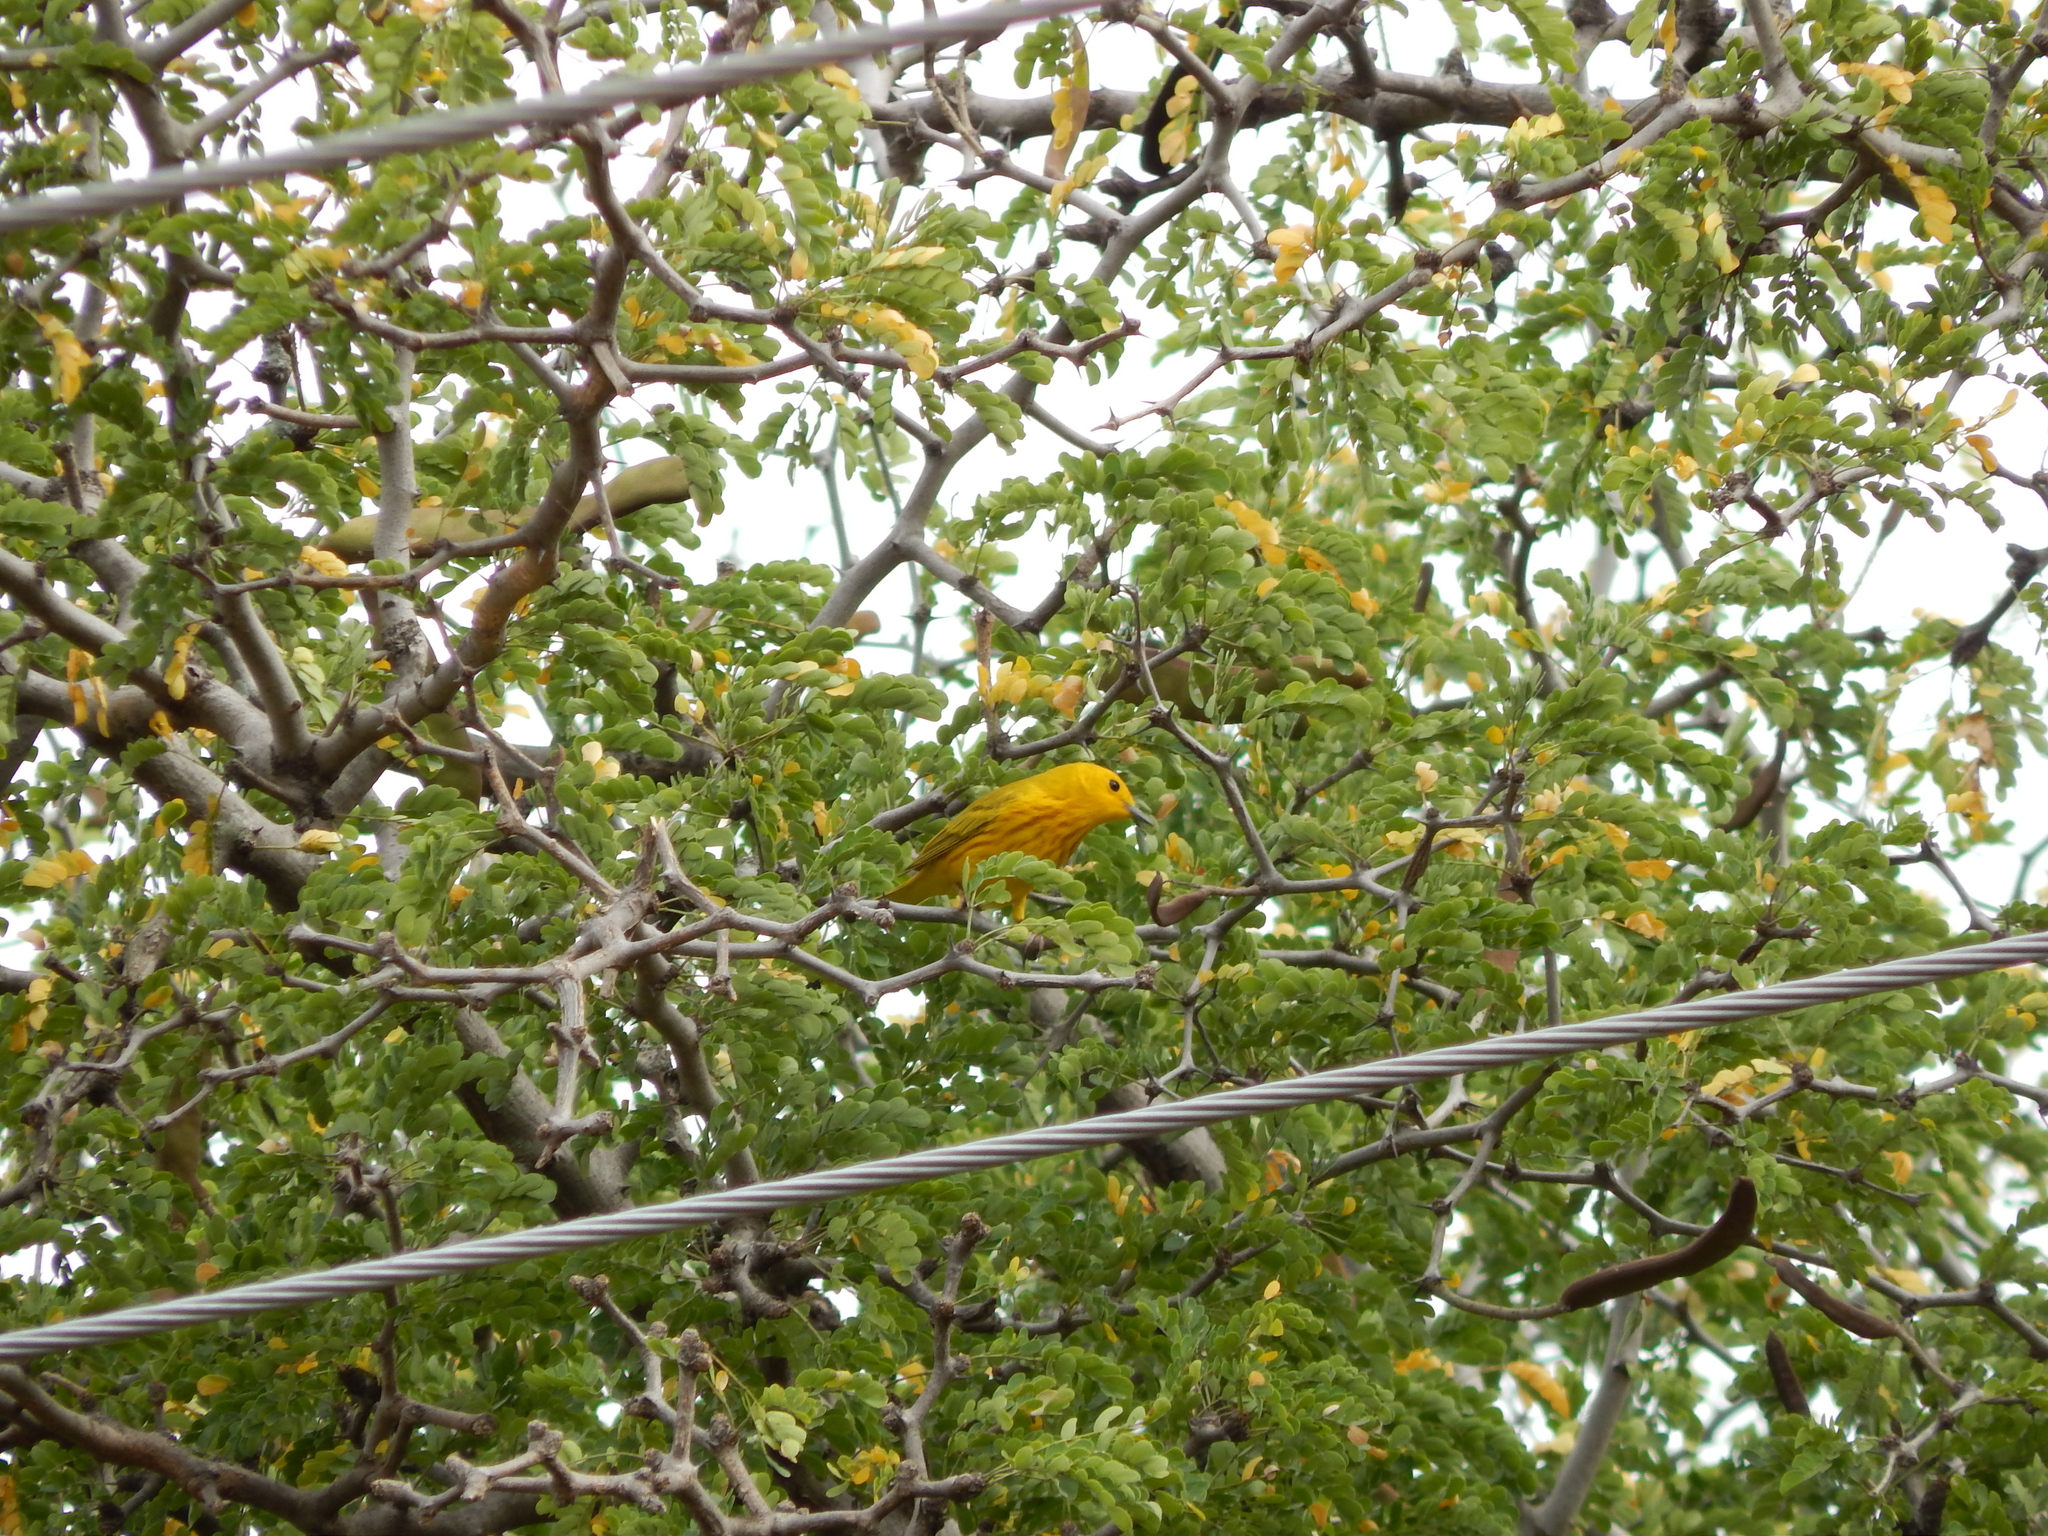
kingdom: Animalia
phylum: Chordata
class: Aves
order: Passeriformes
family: Parulidae
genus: Setophaga
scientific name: Setophaga petechia
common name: Yellow warbler
